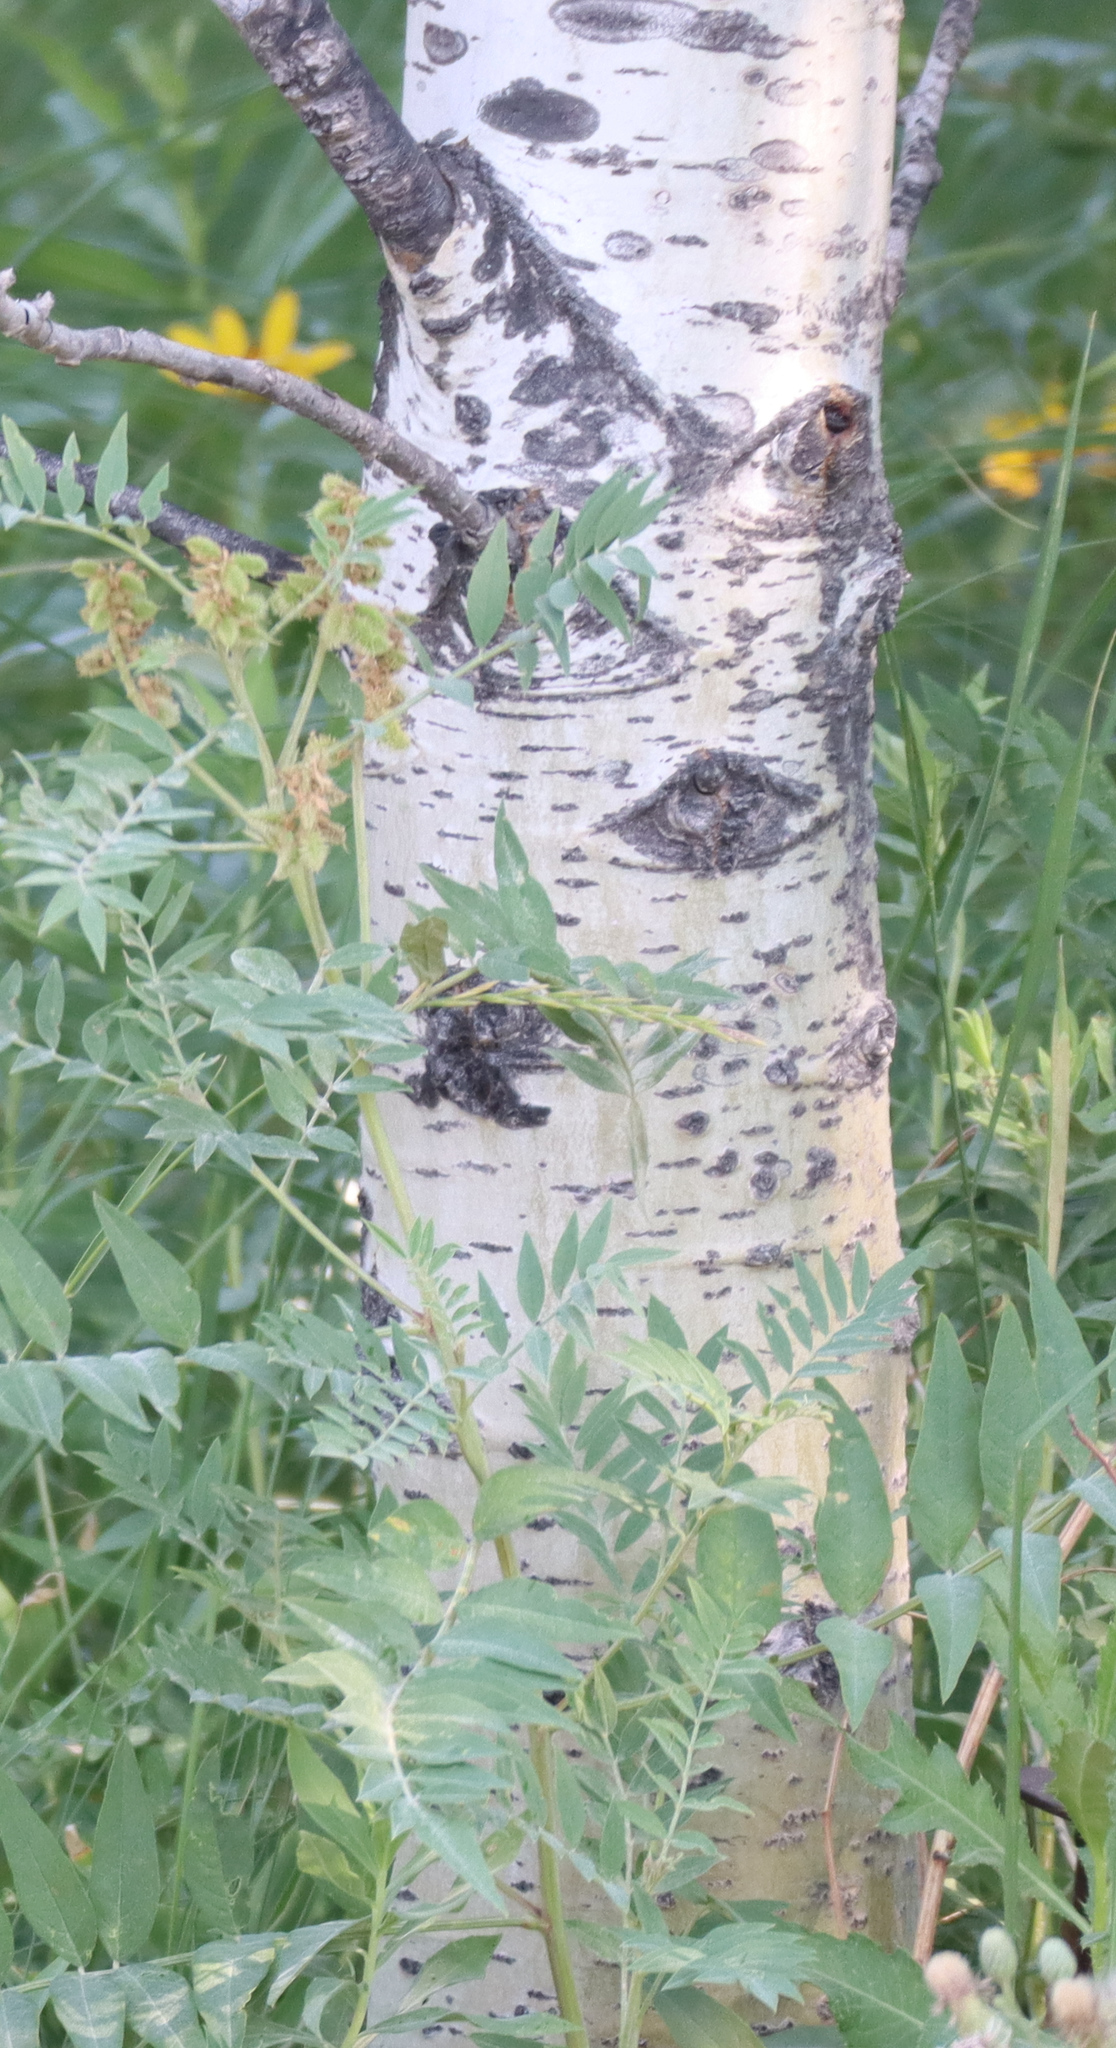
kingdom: Plantae
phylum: Tracheophyta
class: Magnoliopsida
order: Malpighiales
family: Salicaceae
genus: Populus
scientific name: Populus tremuloides
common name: Quaking aspen
